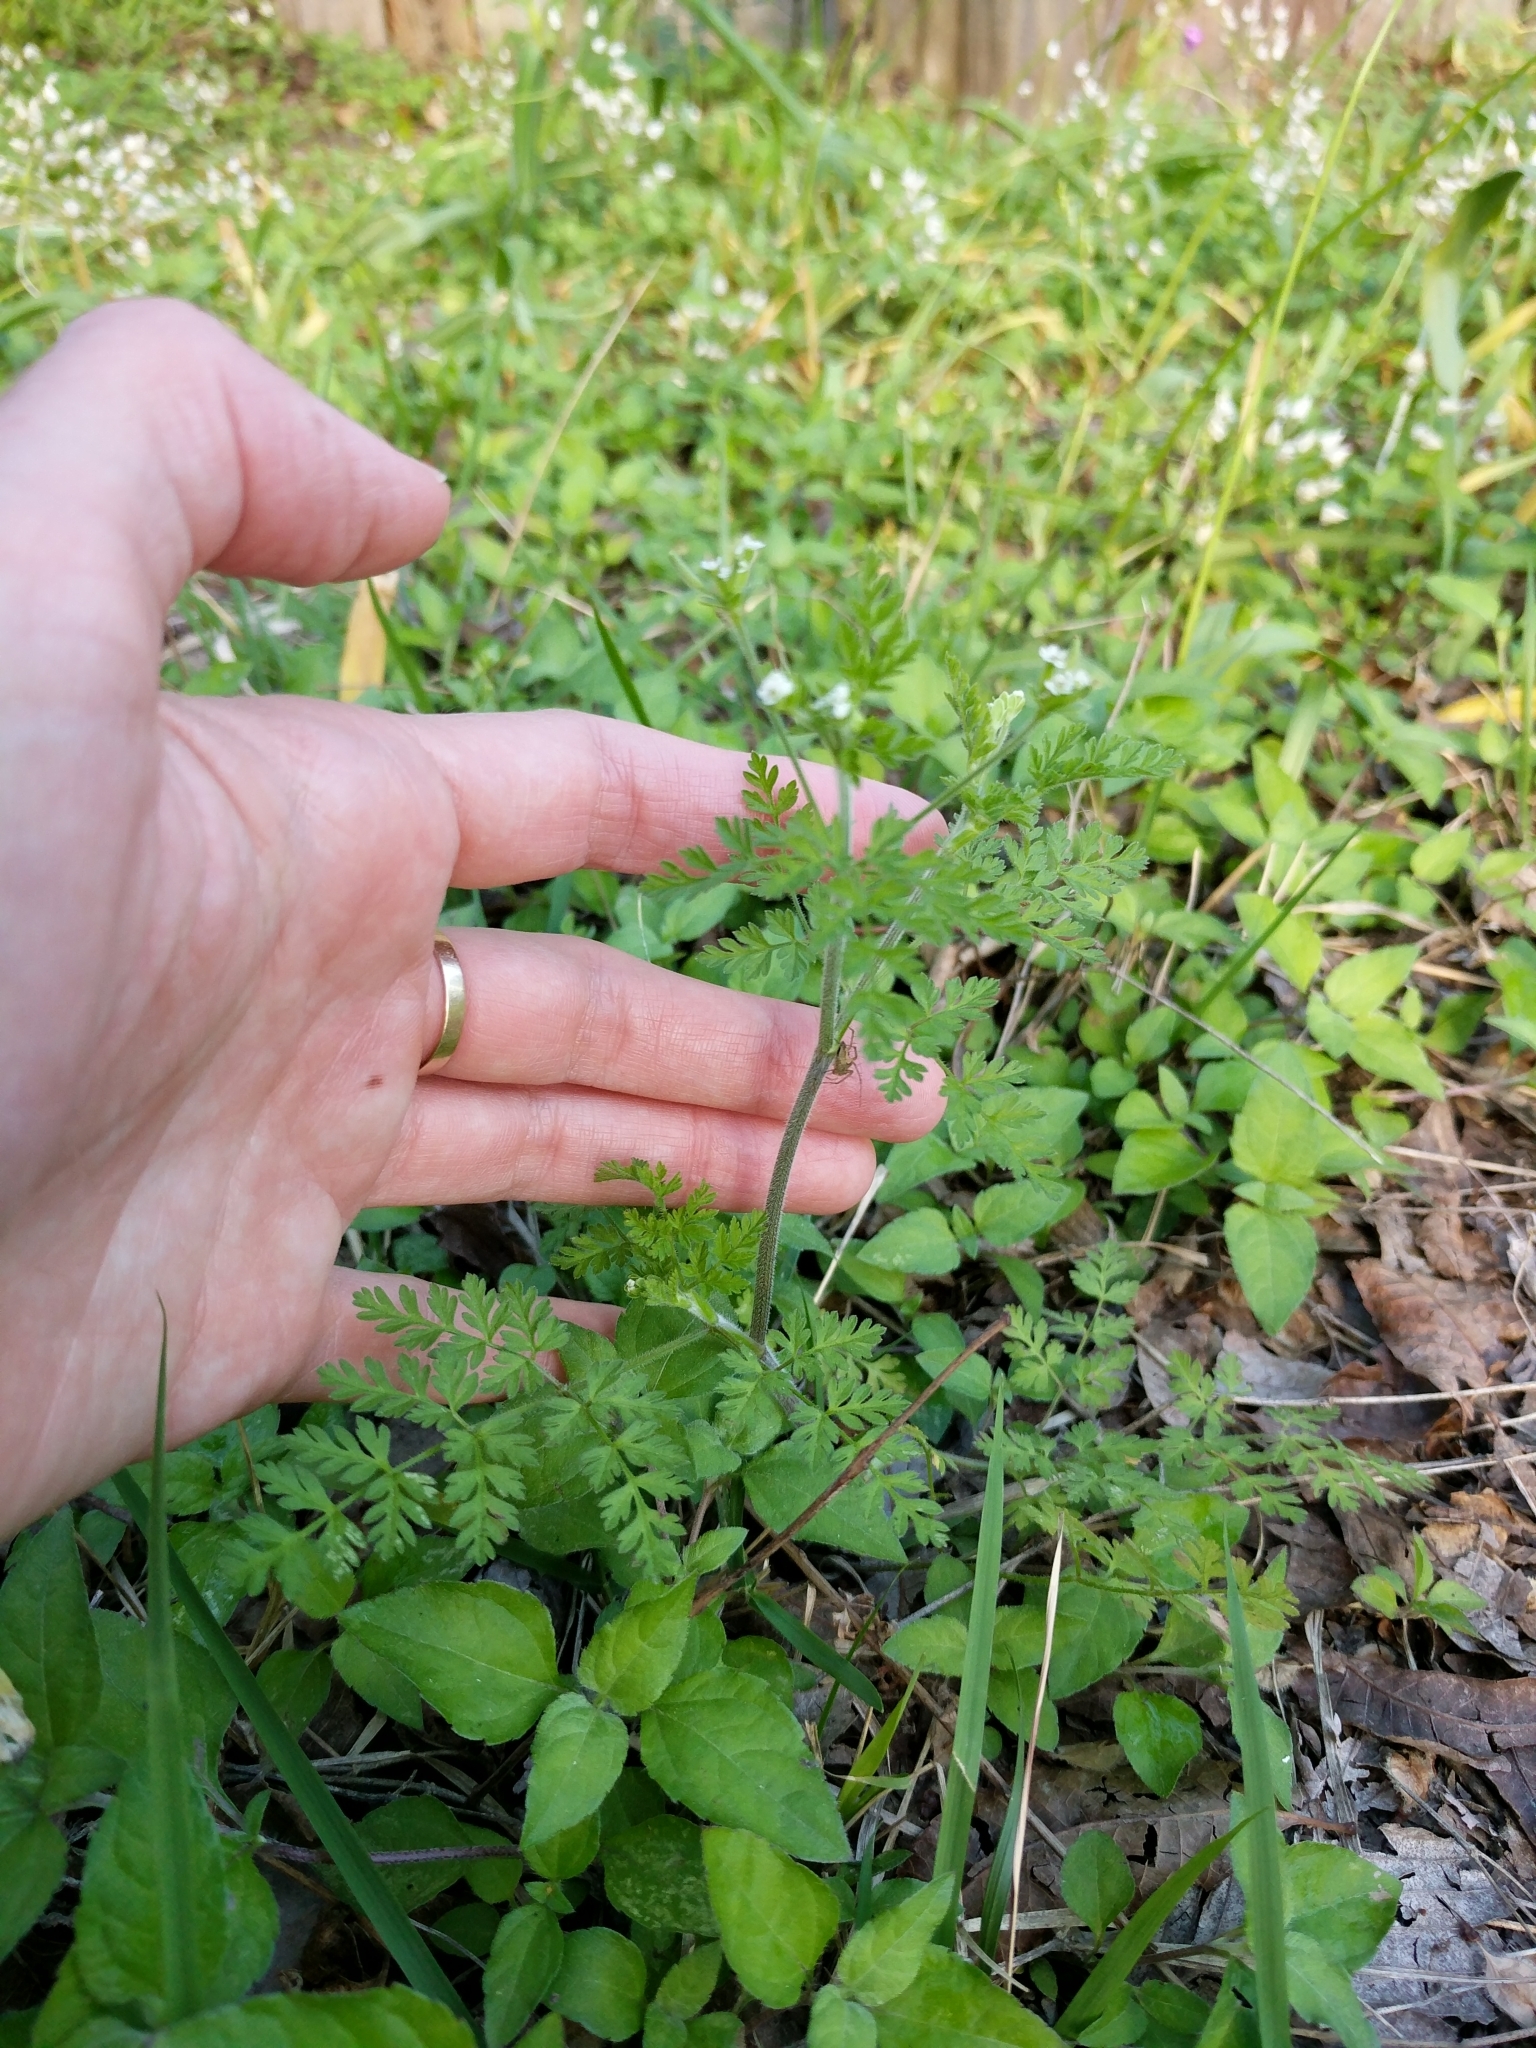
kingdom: Plantae
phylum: Tracheophyta
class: Magnoliopsida
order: Apiales
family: Apiaceae
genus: Chaerophyllum
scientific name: Chaerophyllum tainturieri
